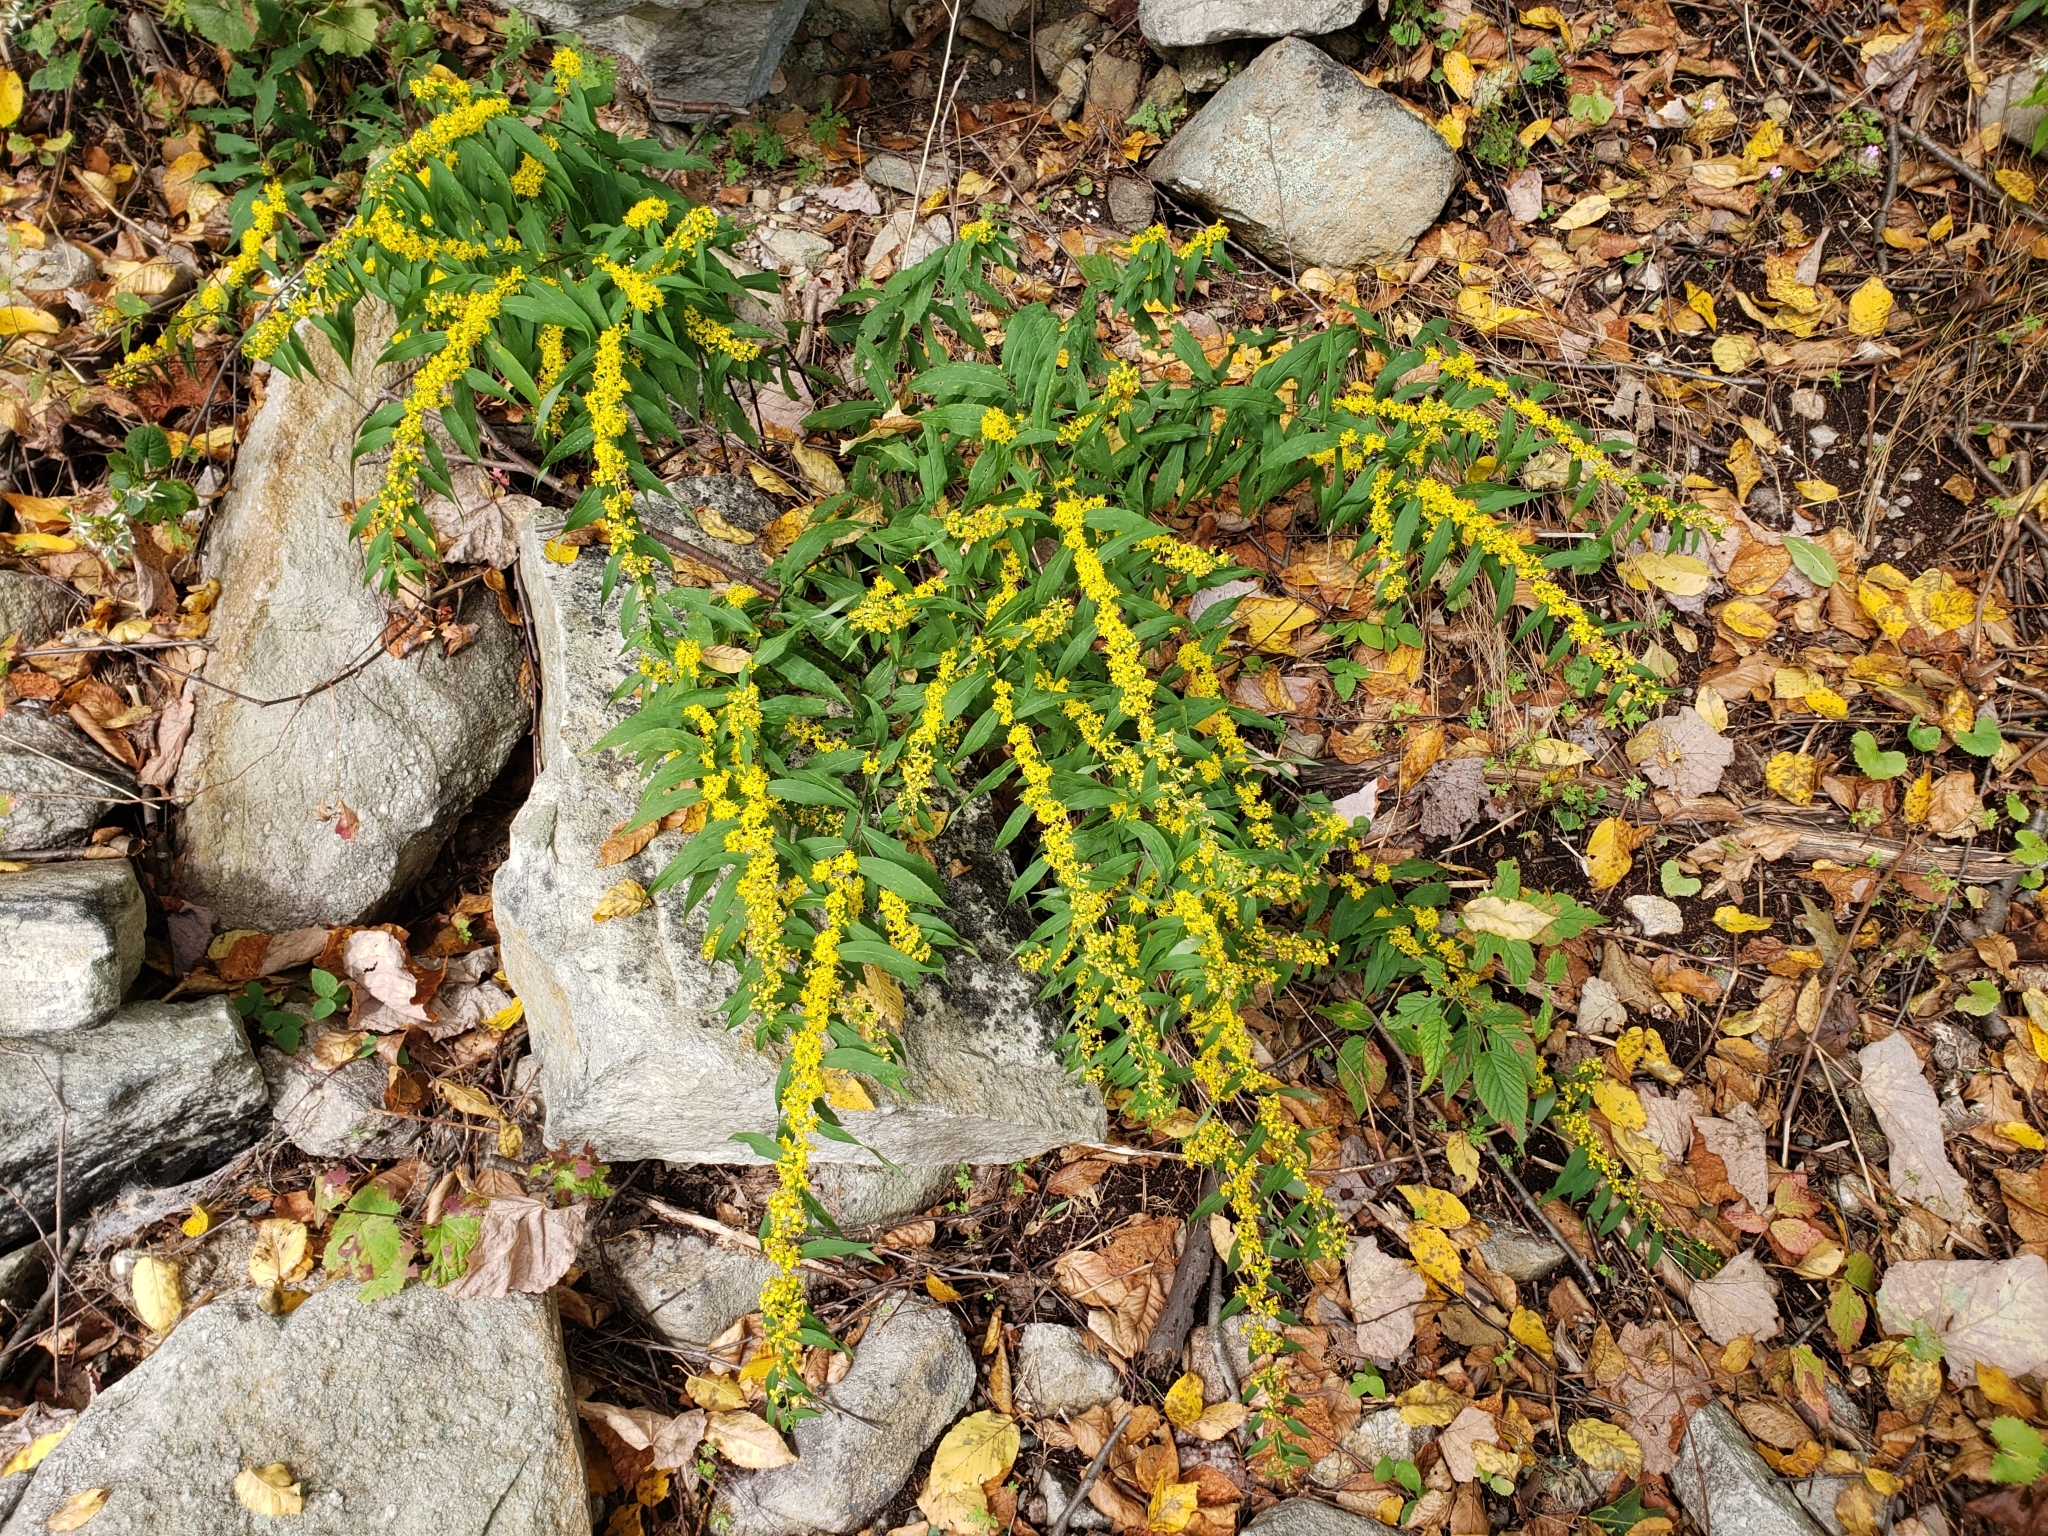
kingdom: Plantae
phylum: Tracheophyta
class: Magnoliopsida
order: Asterales
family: Asteraceae
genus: Solidago
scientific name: Solidago caesia
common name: Woodland goldenrod
